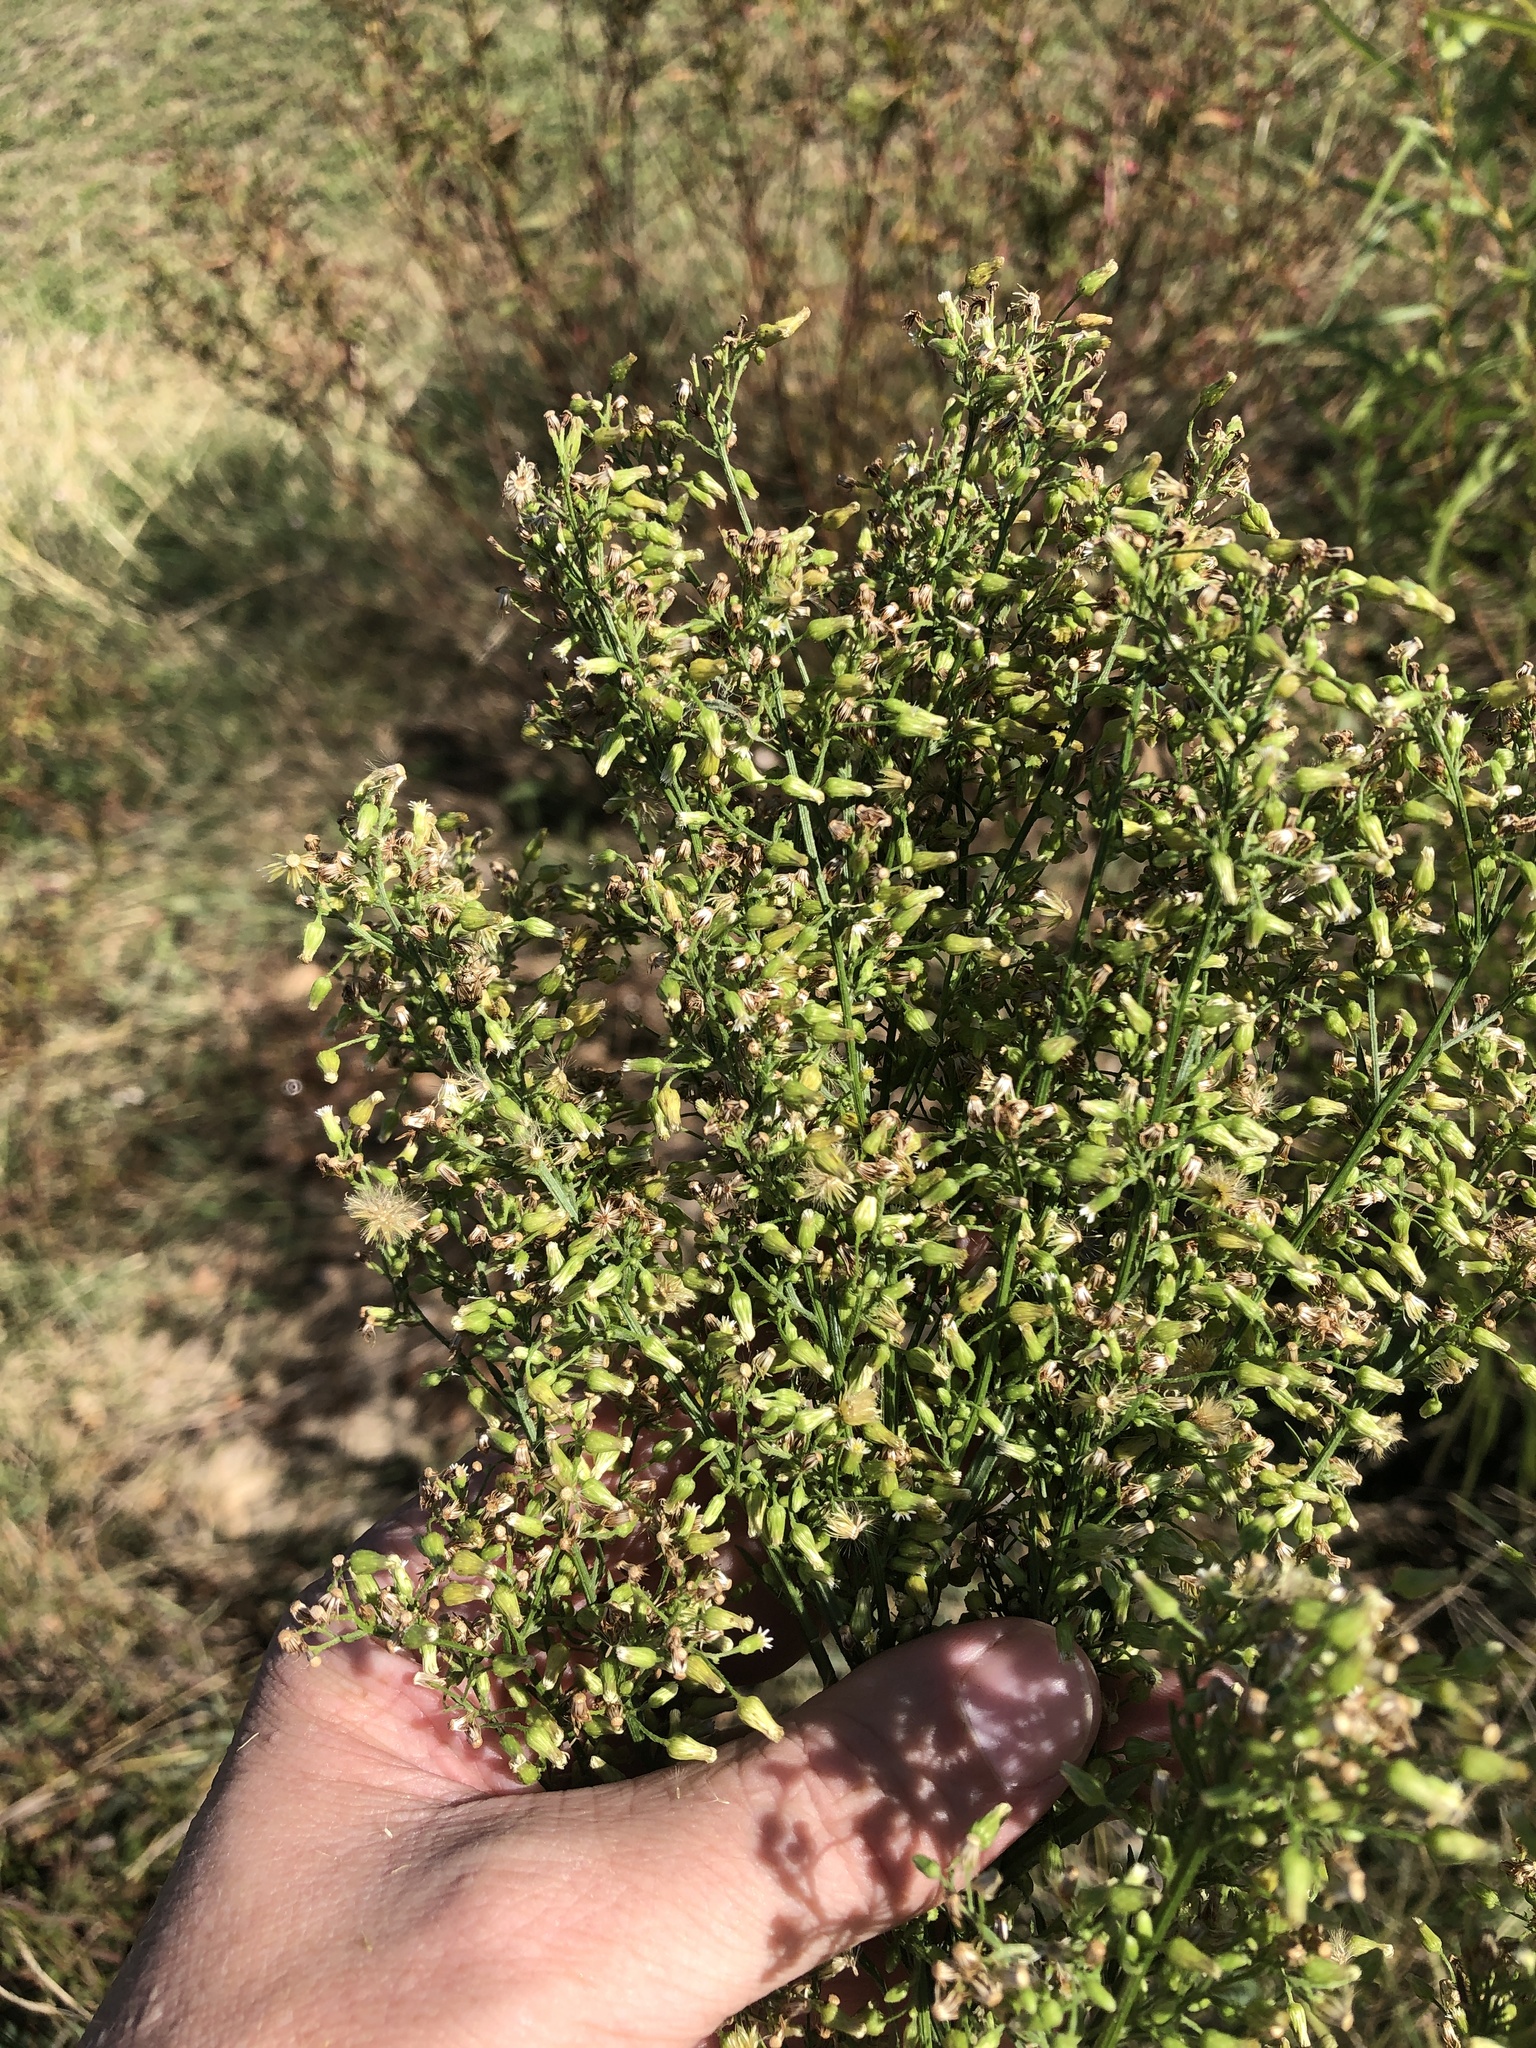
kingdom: Plantae
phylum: Tracheophyta
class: Magnoliopsida
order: Asterales
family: Asteraceae
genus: Erigeron
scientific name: Erigeron canadensis
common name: Canadian fleabane
